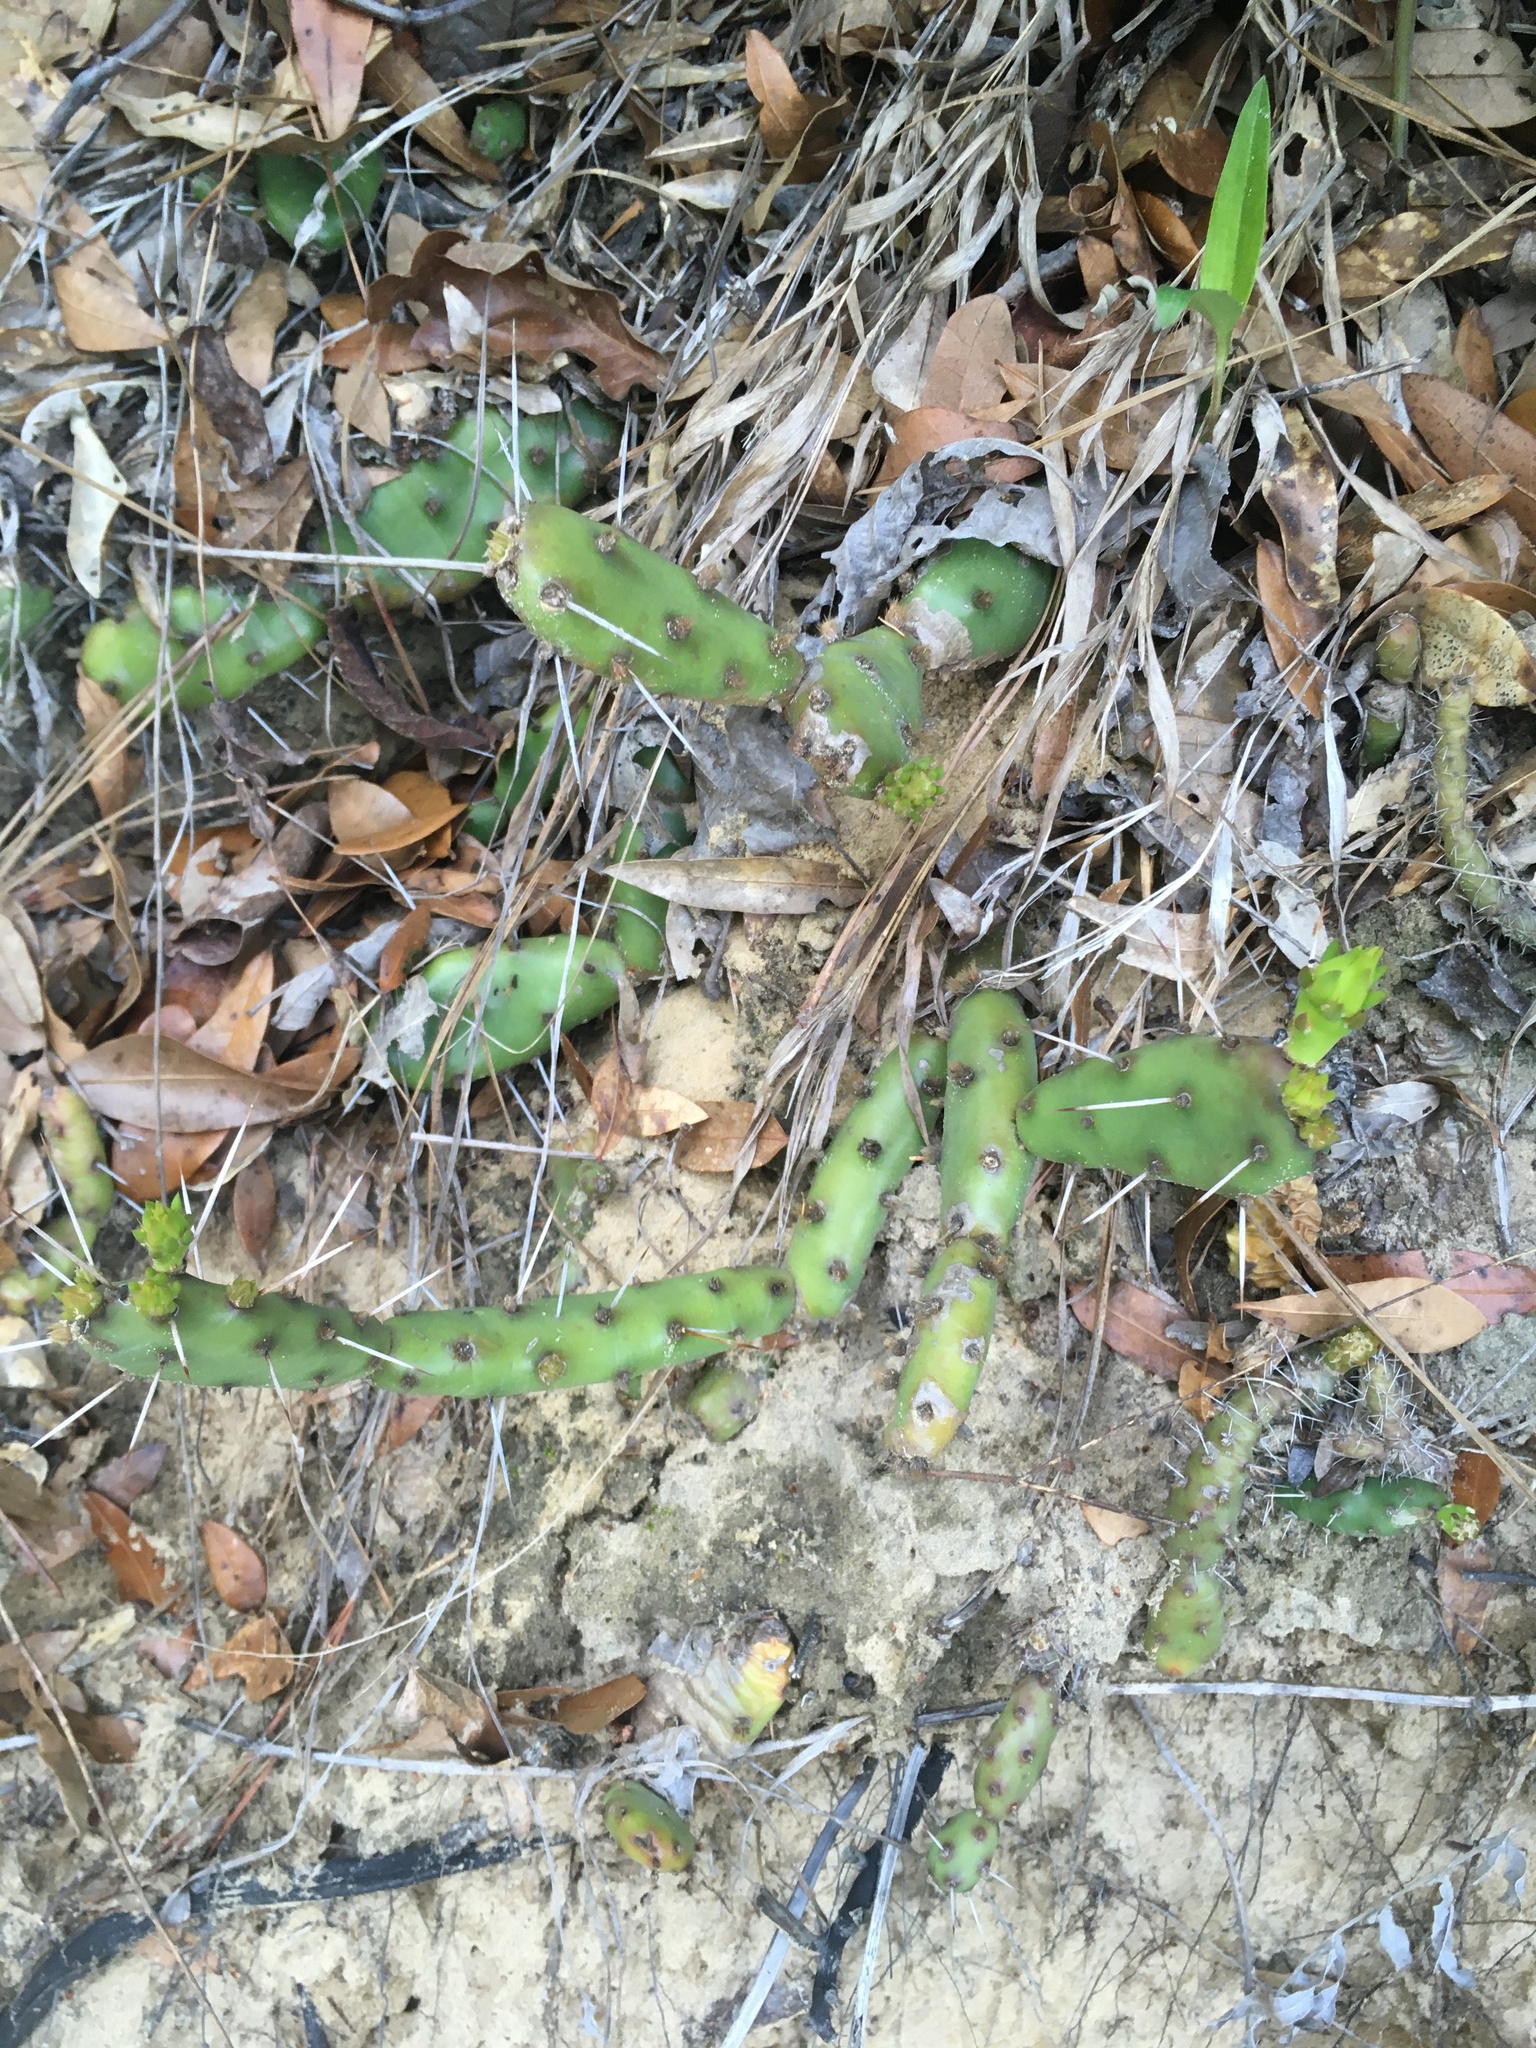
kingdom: Plantae
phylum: Tracheophyta
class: Magnoliopsida
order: Caryophyllales
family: Cactaceae
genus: Opuntia
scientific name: Opuntia drummondii
